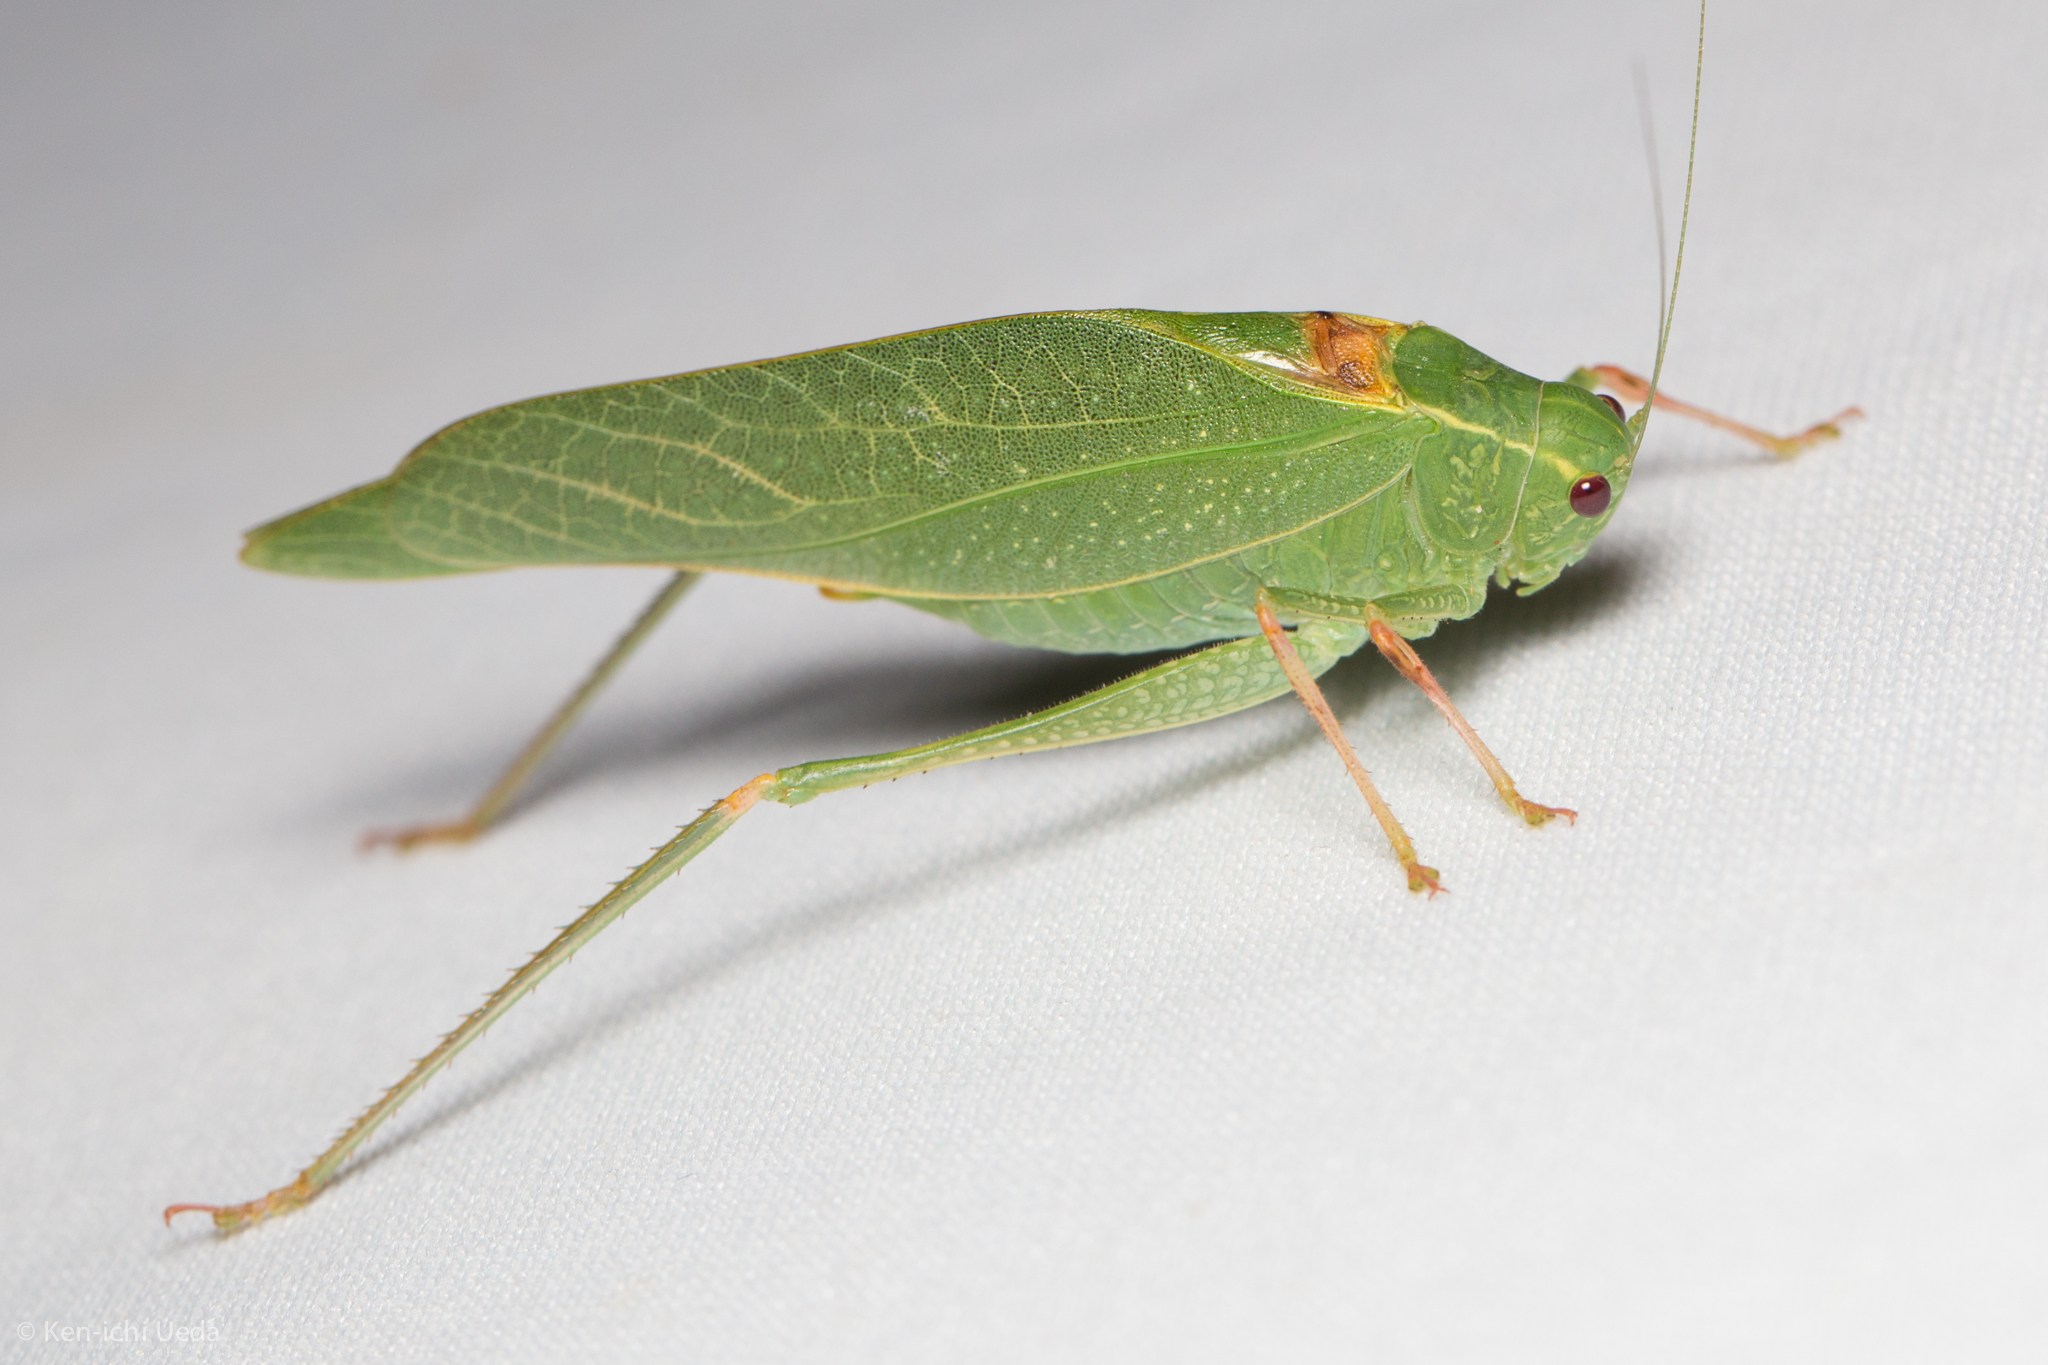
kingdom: Animalia
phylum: Arthropoda
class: Insecta
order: Orthoptera
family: Tettigoniidae
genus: Microcentrum
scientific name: Microcentrum californicum
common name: California angle-wing
